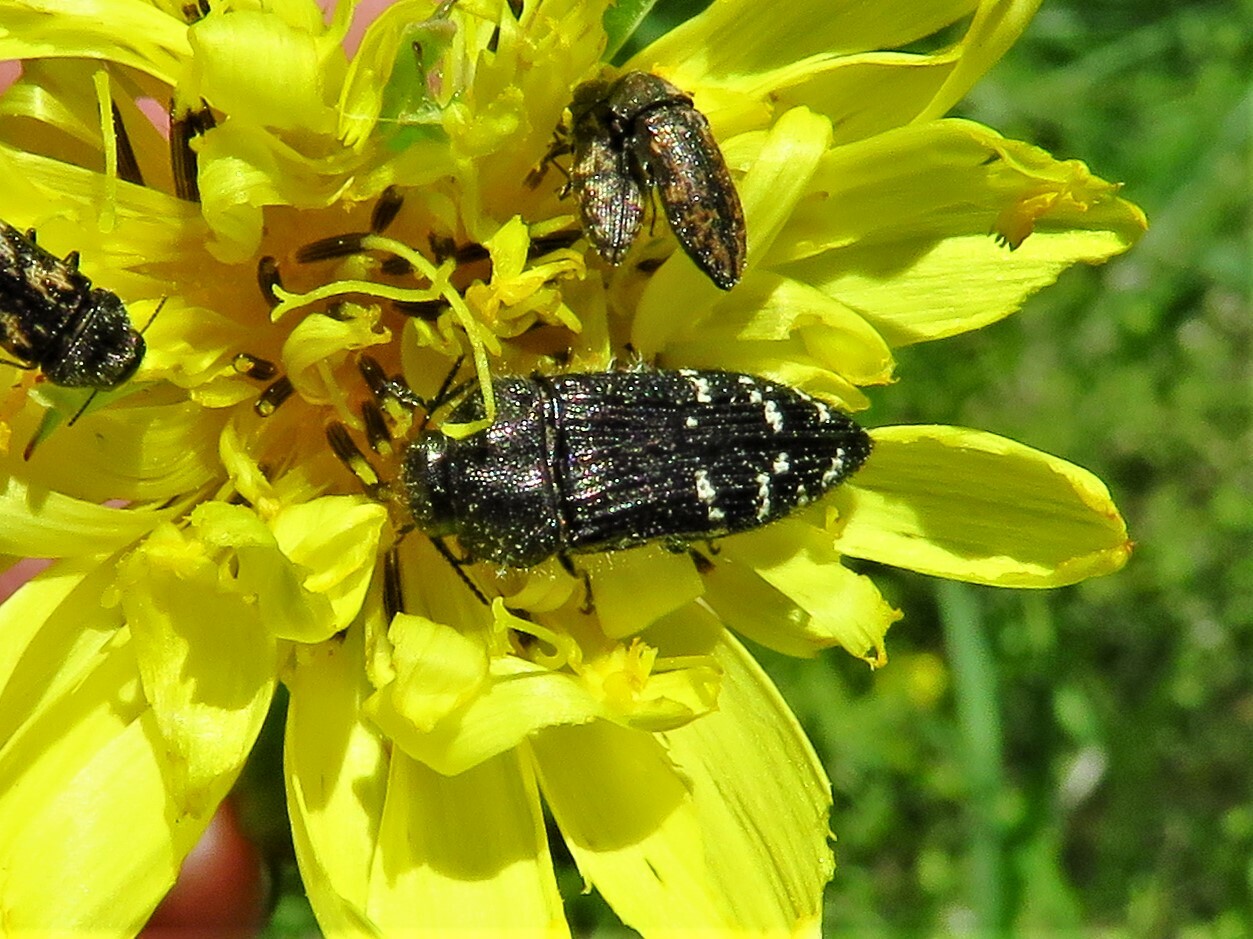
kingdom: Animalia
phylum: Arthropoda
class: Insecta
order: Coleoptera
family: Buprestidae
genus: Acmaeodera
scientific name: Acmaeodera ornatoides
